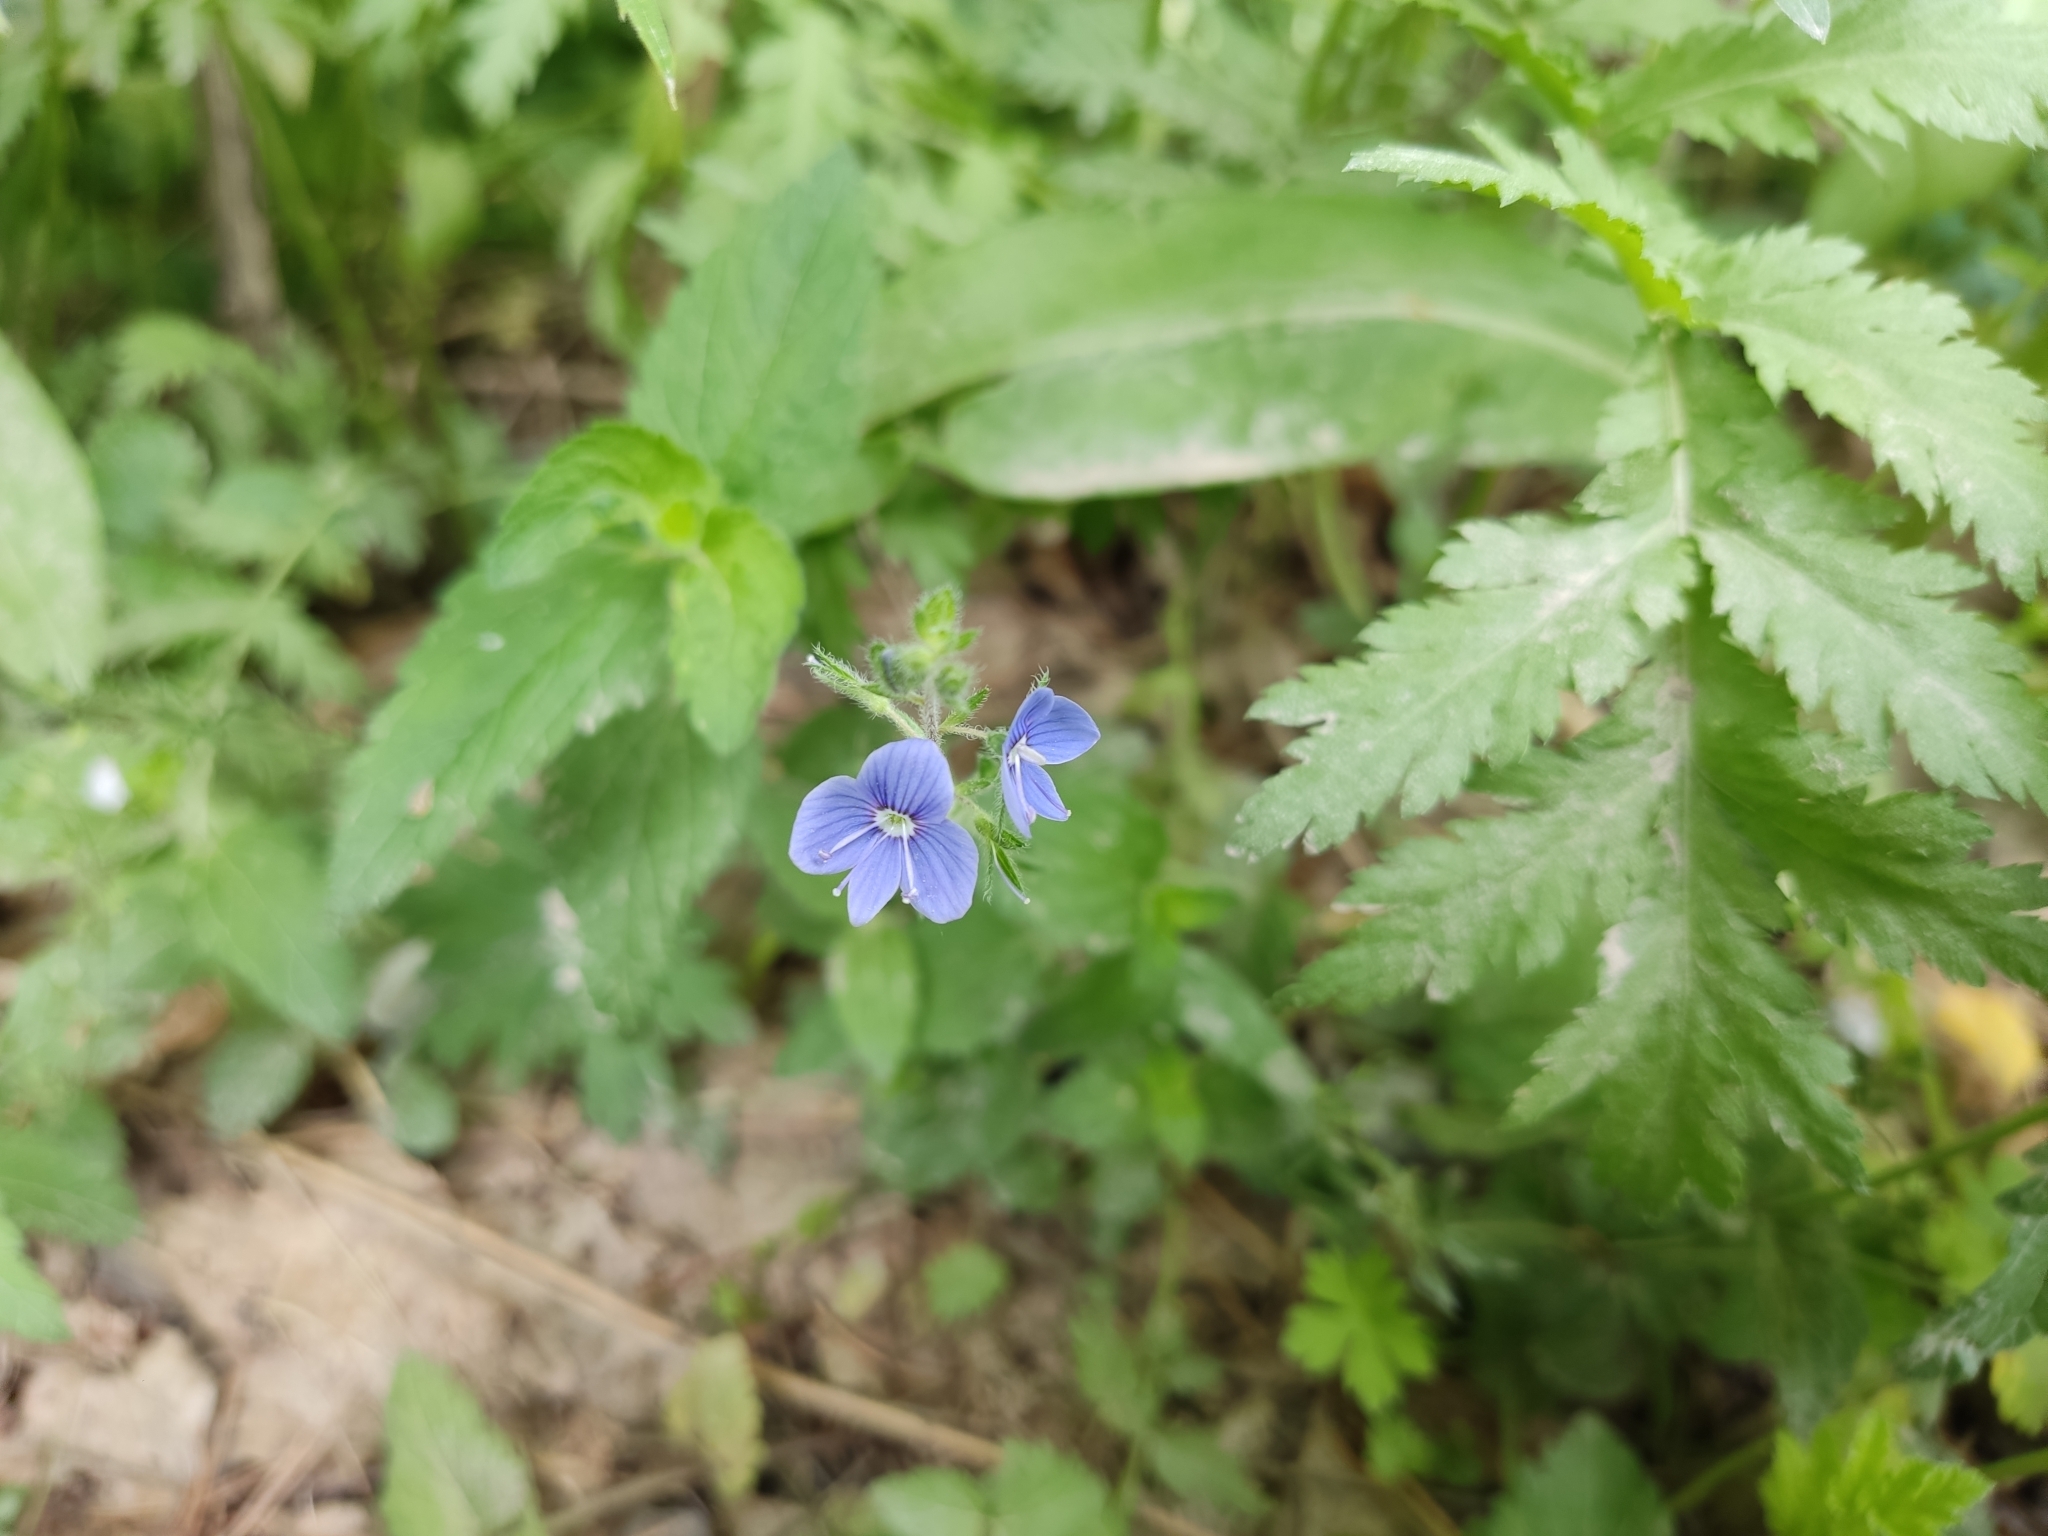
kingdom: Plantae
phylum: Tracheophyta
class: Magnoliopsida
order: Lamiales
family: Plantaginaceae
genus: Veronica
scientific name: Veronica chamaedrys
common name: Germander speedwell
